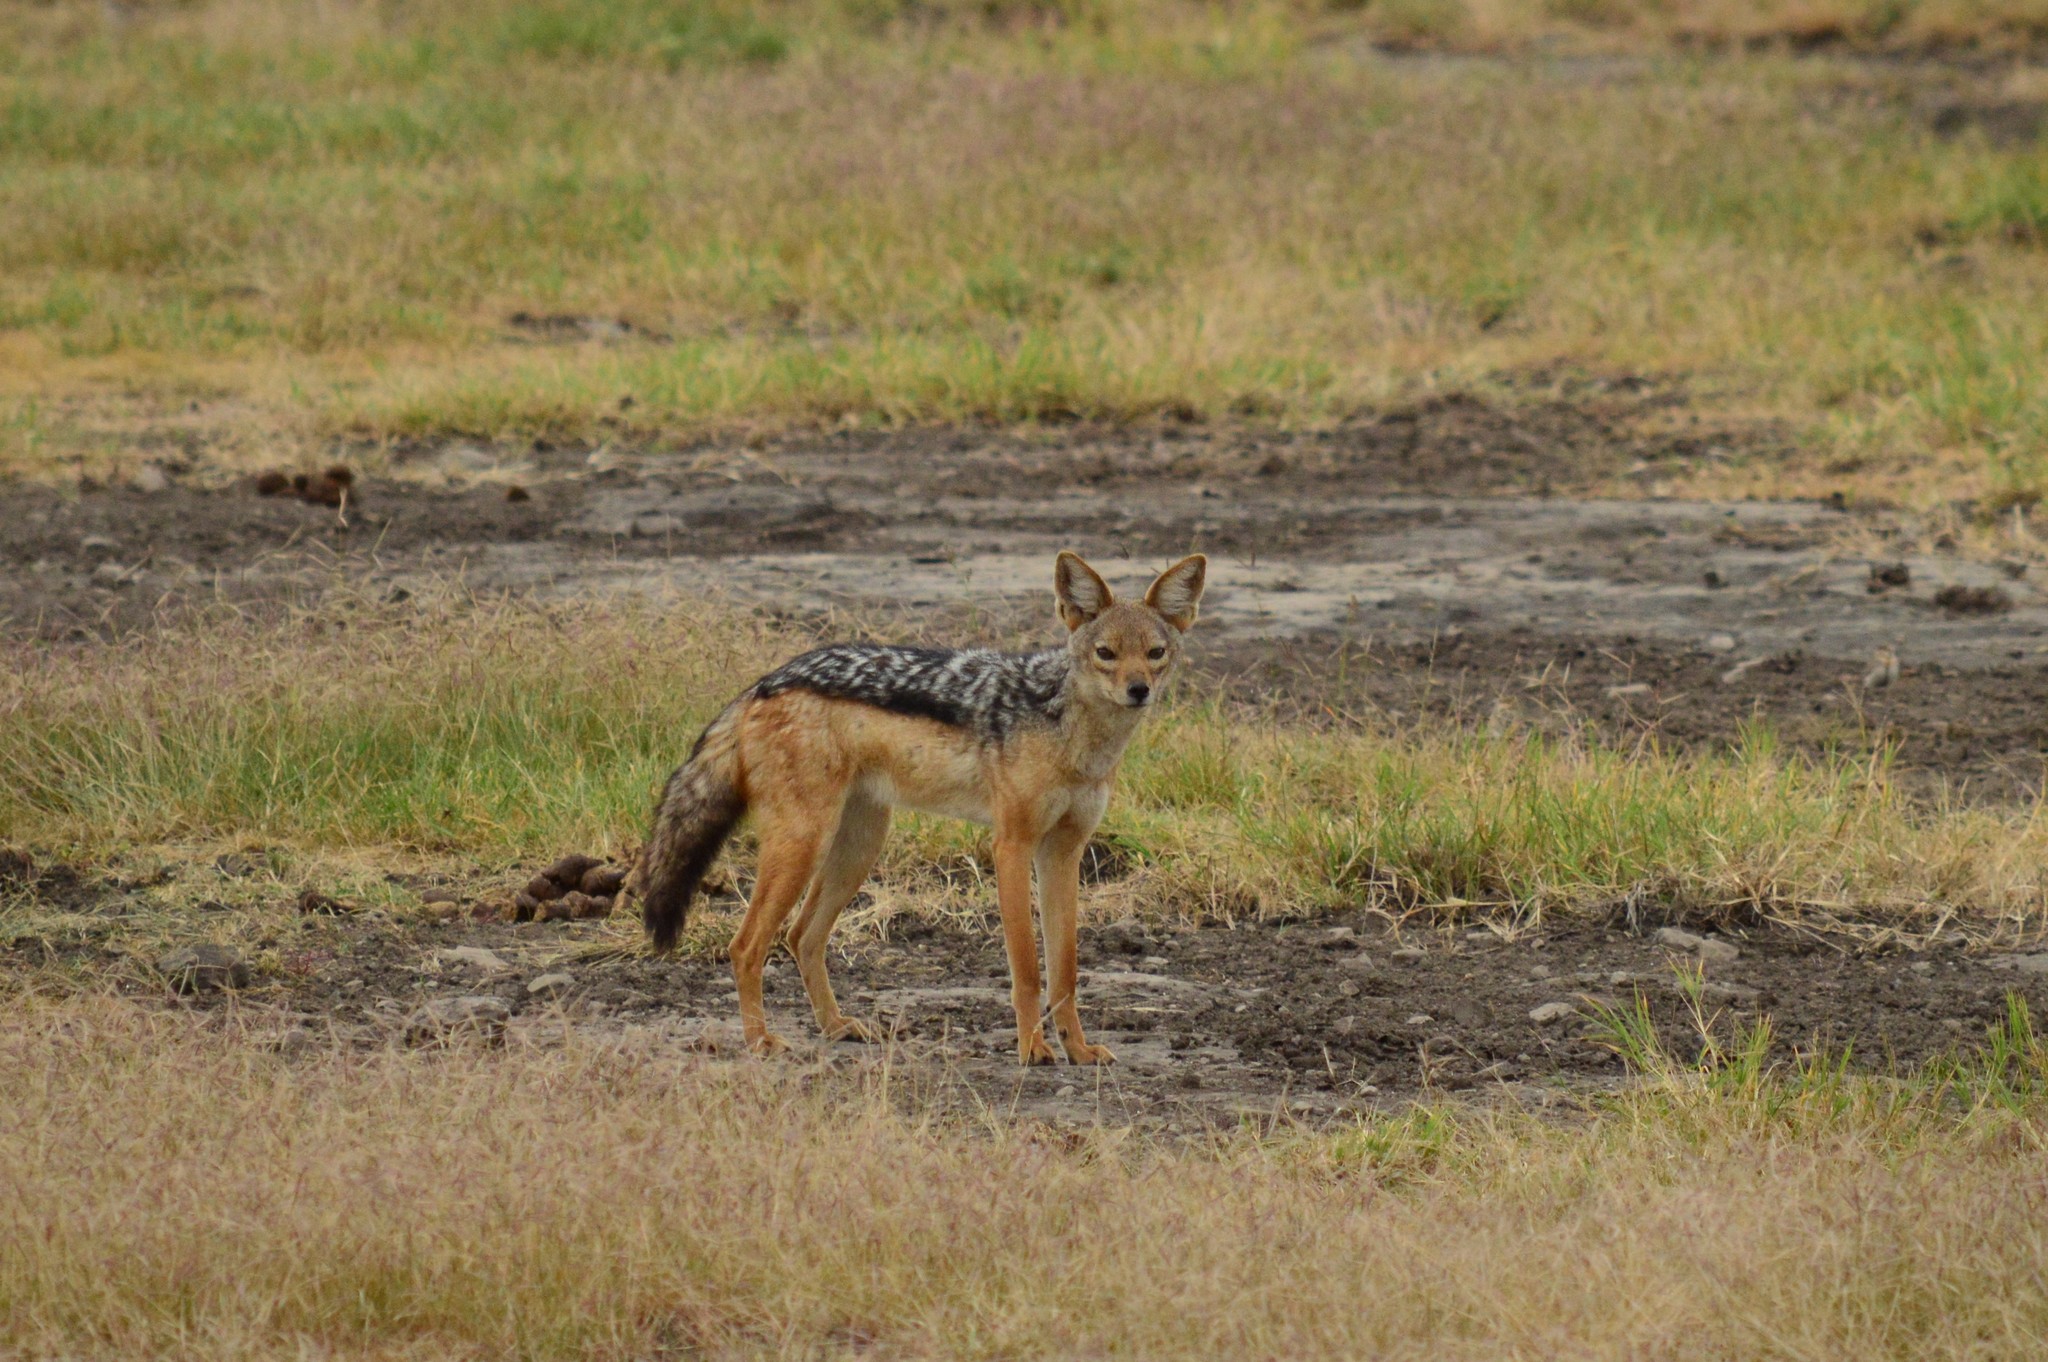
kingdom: Animalia
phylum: Chordata
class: Mammalia
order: Carnivora
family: Canidae
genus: Lupulella
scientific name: Lupulella
